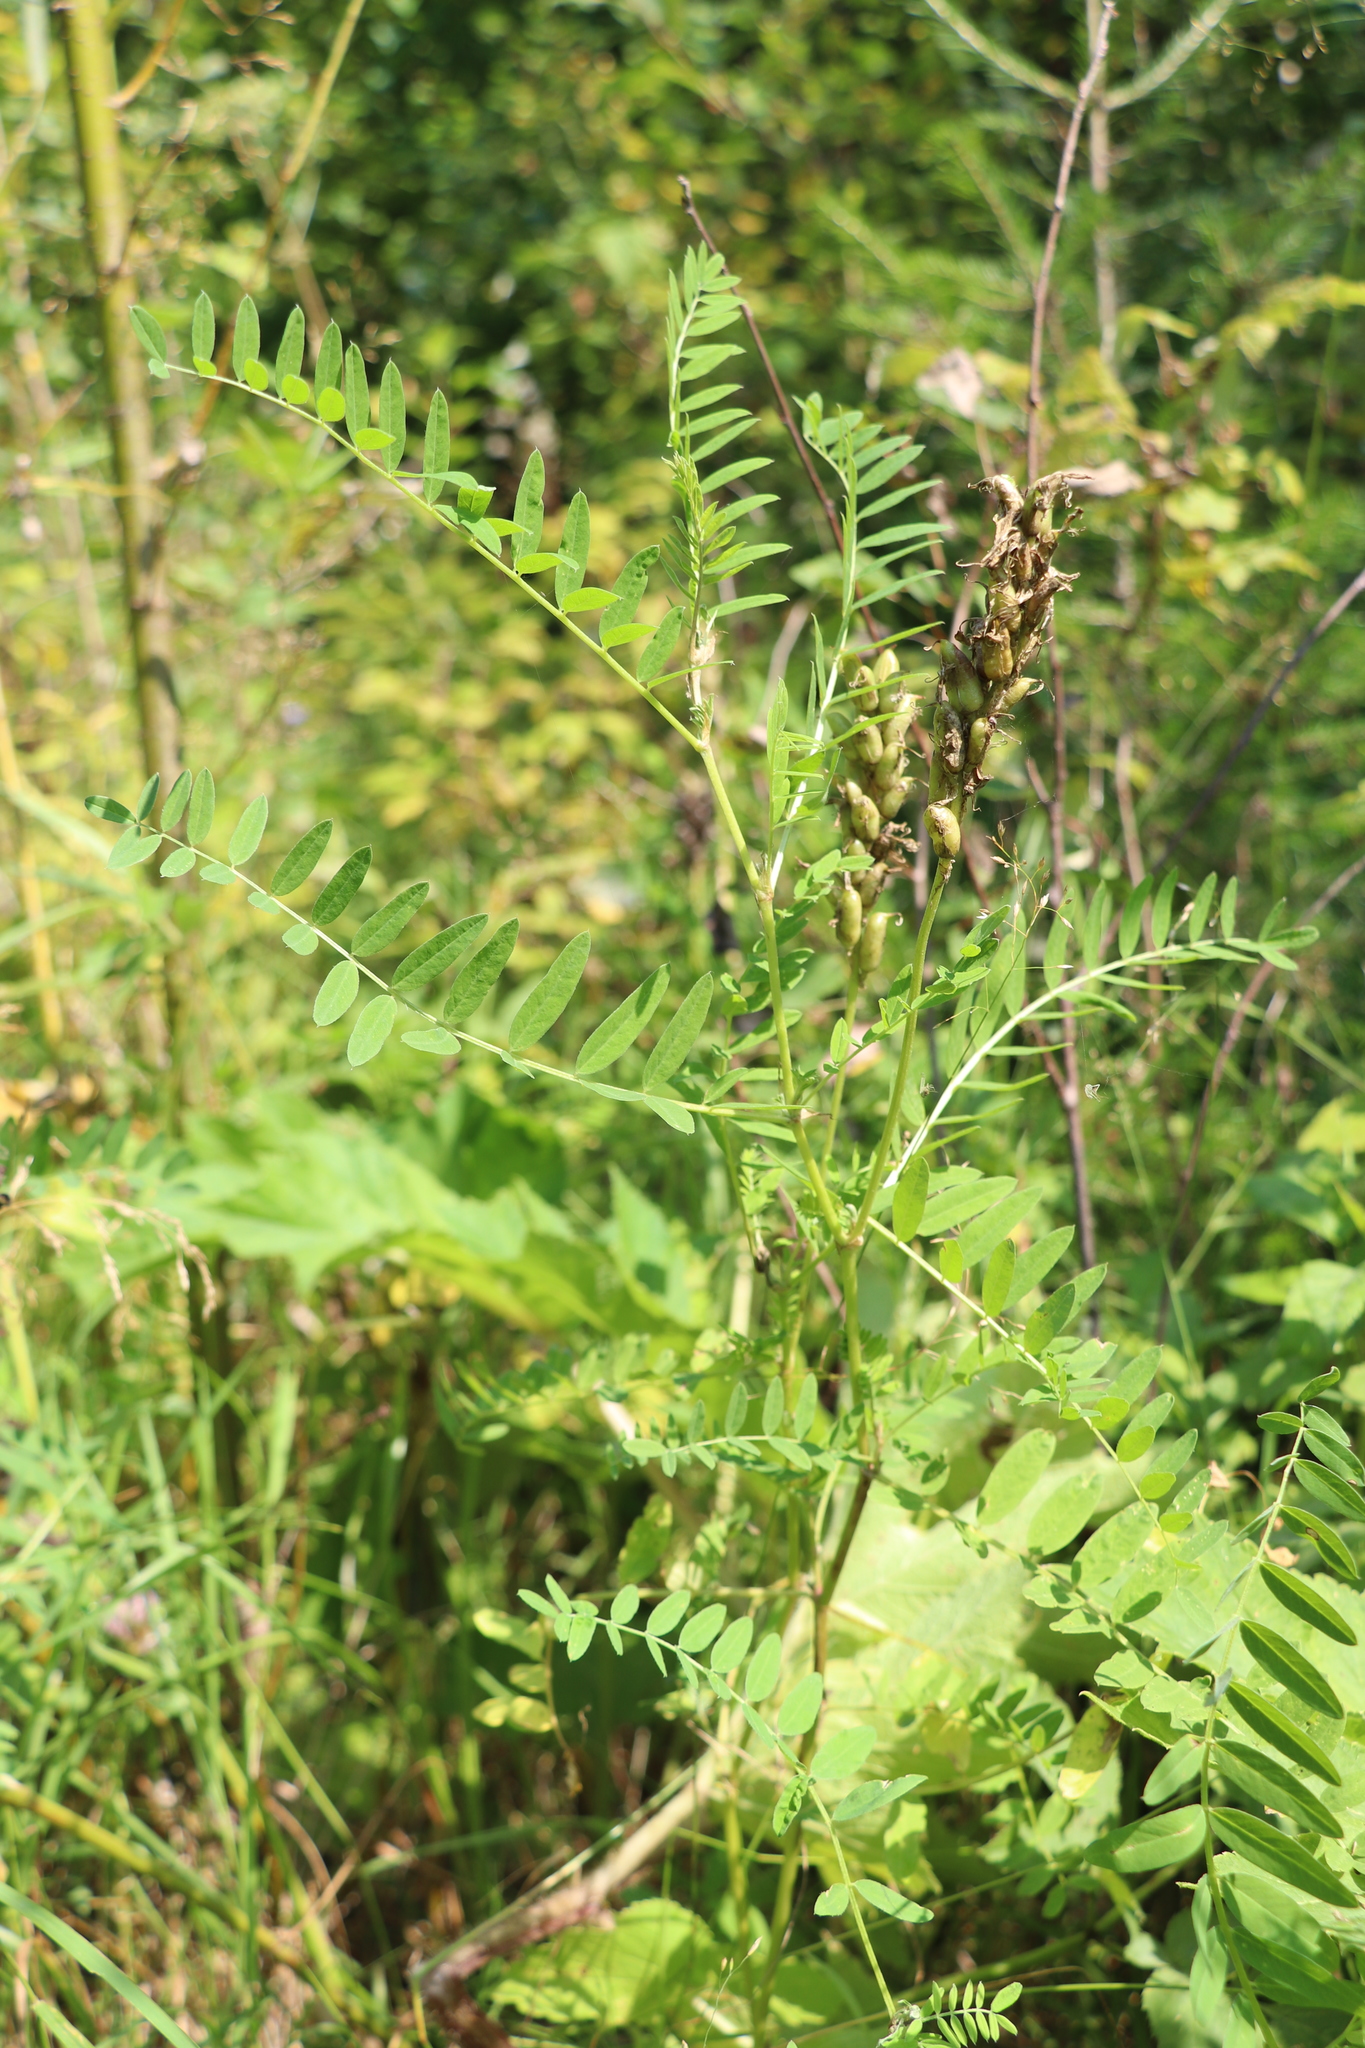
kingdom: Plantae
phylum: Tracheophyta
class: Magnoliopsida
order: Fabales
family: Fabaceae
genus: Astragalus
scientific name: Astragalus uliginosus
